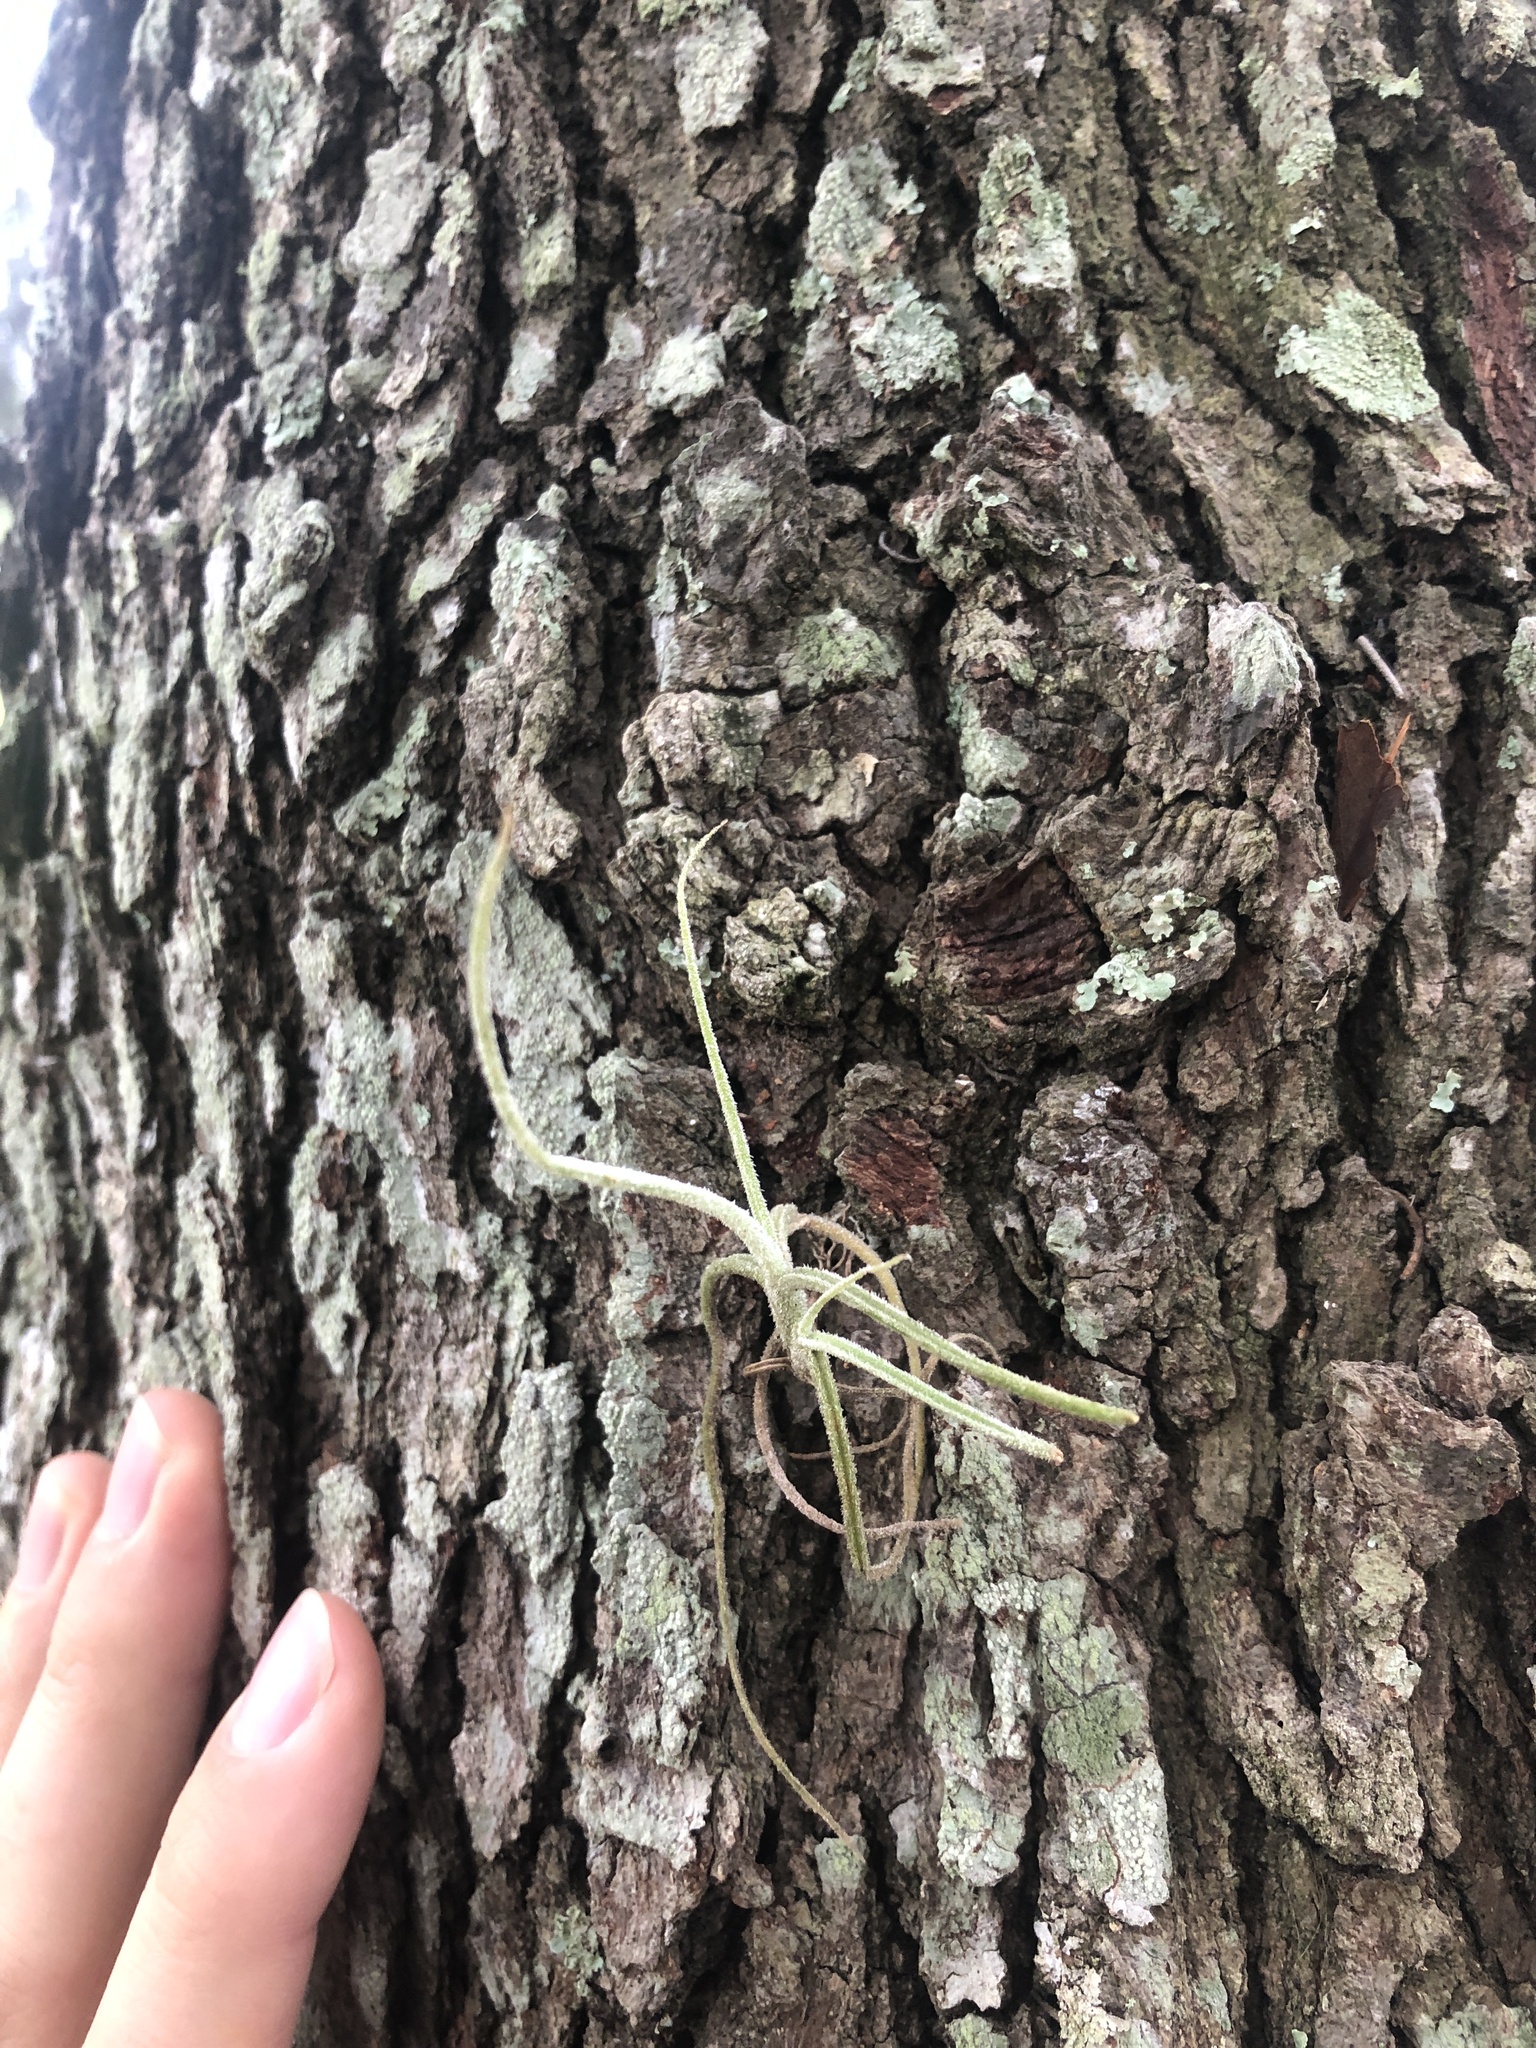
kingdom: Plantae
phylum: Tracheophyta
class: Liliopsida
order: Poales
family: Bromeliaceae
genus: Tillandsia
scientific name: Tillandsia recurvata
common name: Small ballmoss
